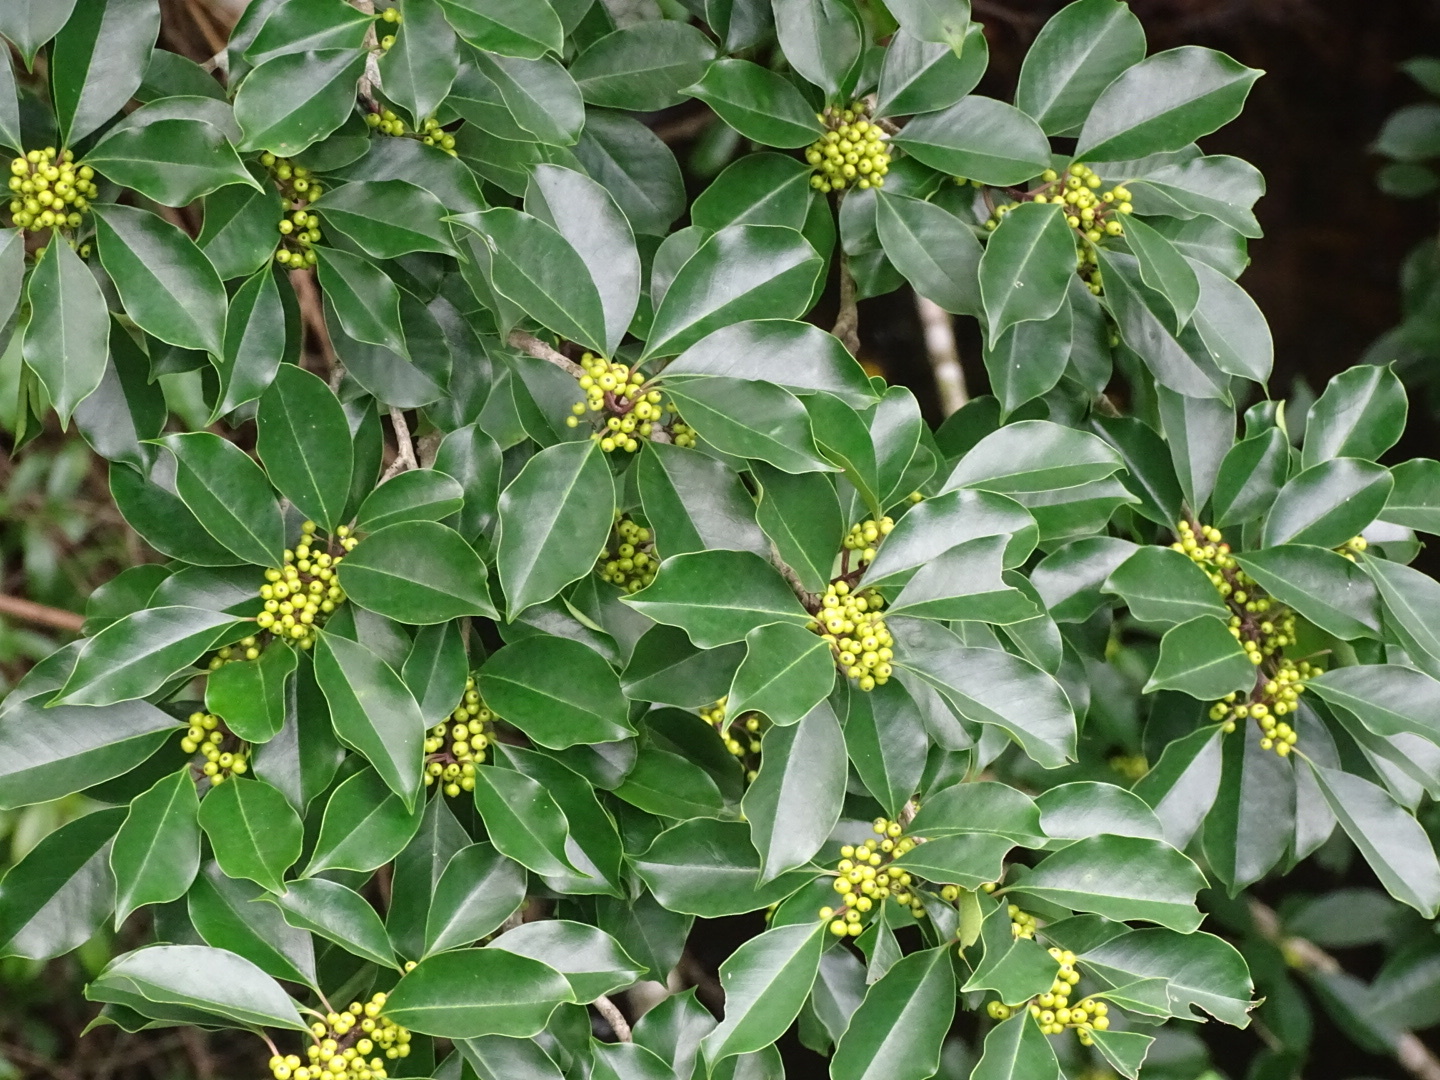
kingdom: Plantae
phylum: Tracheophyta
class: Magnoliopsida
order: Aquifoliales
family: Aquifoliaceae
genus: Ilex
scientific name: Ilex rotunda
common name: Kurogane holly
